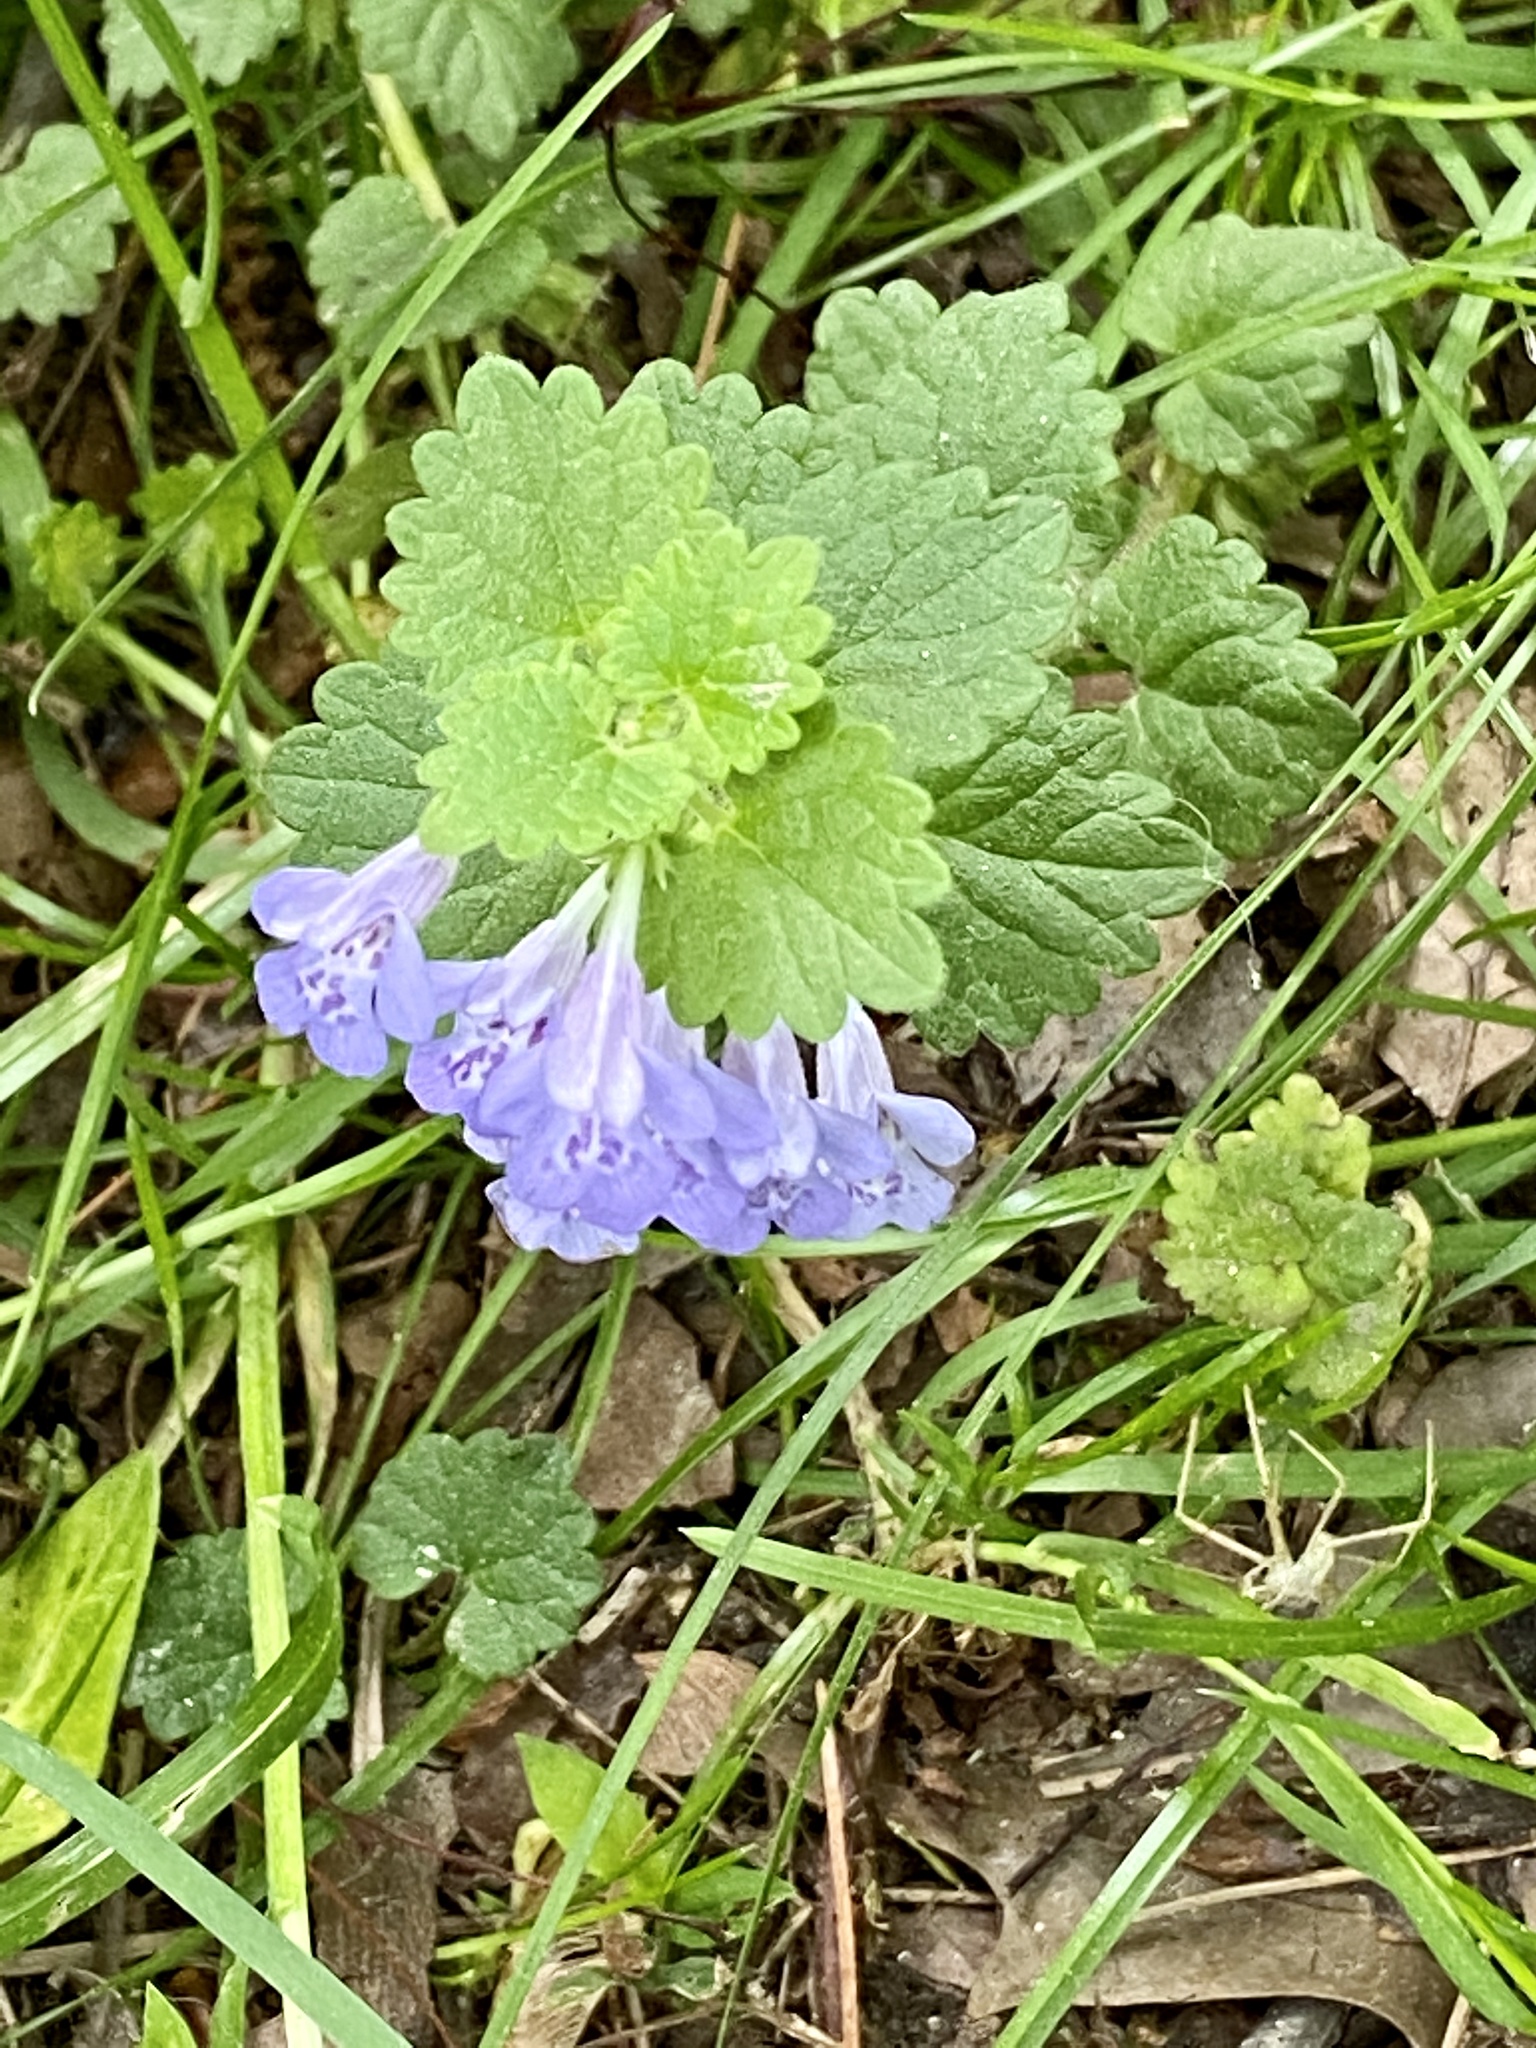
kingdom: Plantae
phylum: Tracheophyta
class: Magnoliopsida
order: Lamiales
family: Lamiaceae
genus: Glechoma
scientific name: Glechoma hederacea
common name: Ground ivy
